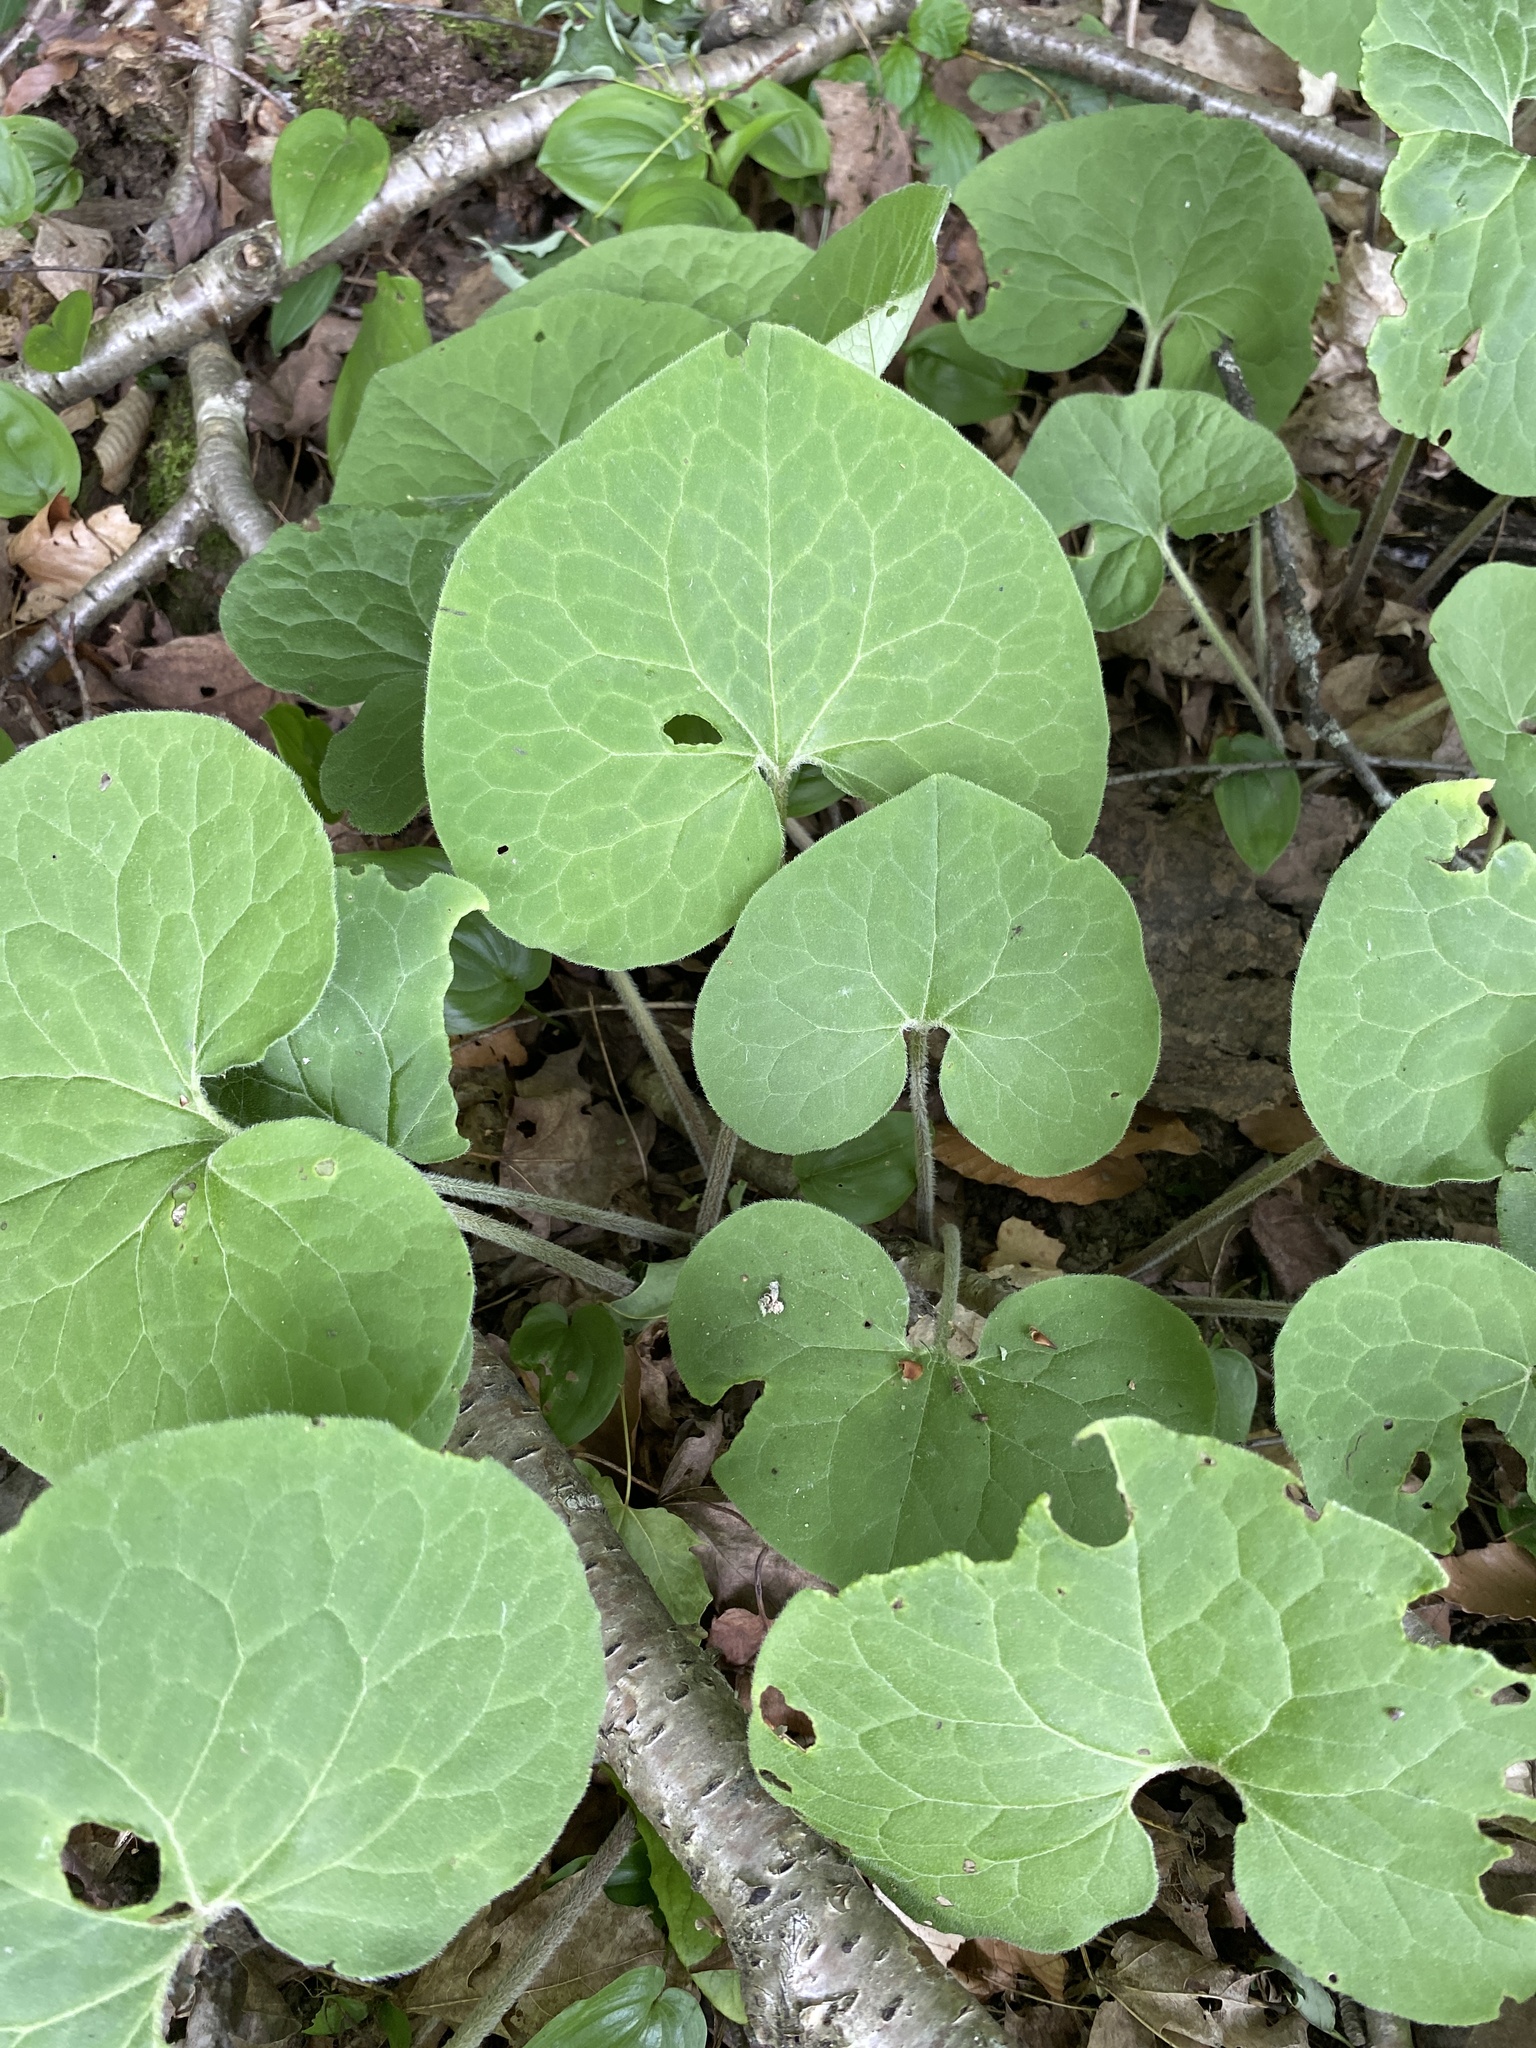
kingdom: Plantae
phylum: Tracheophyta
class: Magnoliopsida
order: Piperales
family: Aristolochiaceae
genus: Asarum
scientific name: Asarum canadense
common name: Wild ginger
